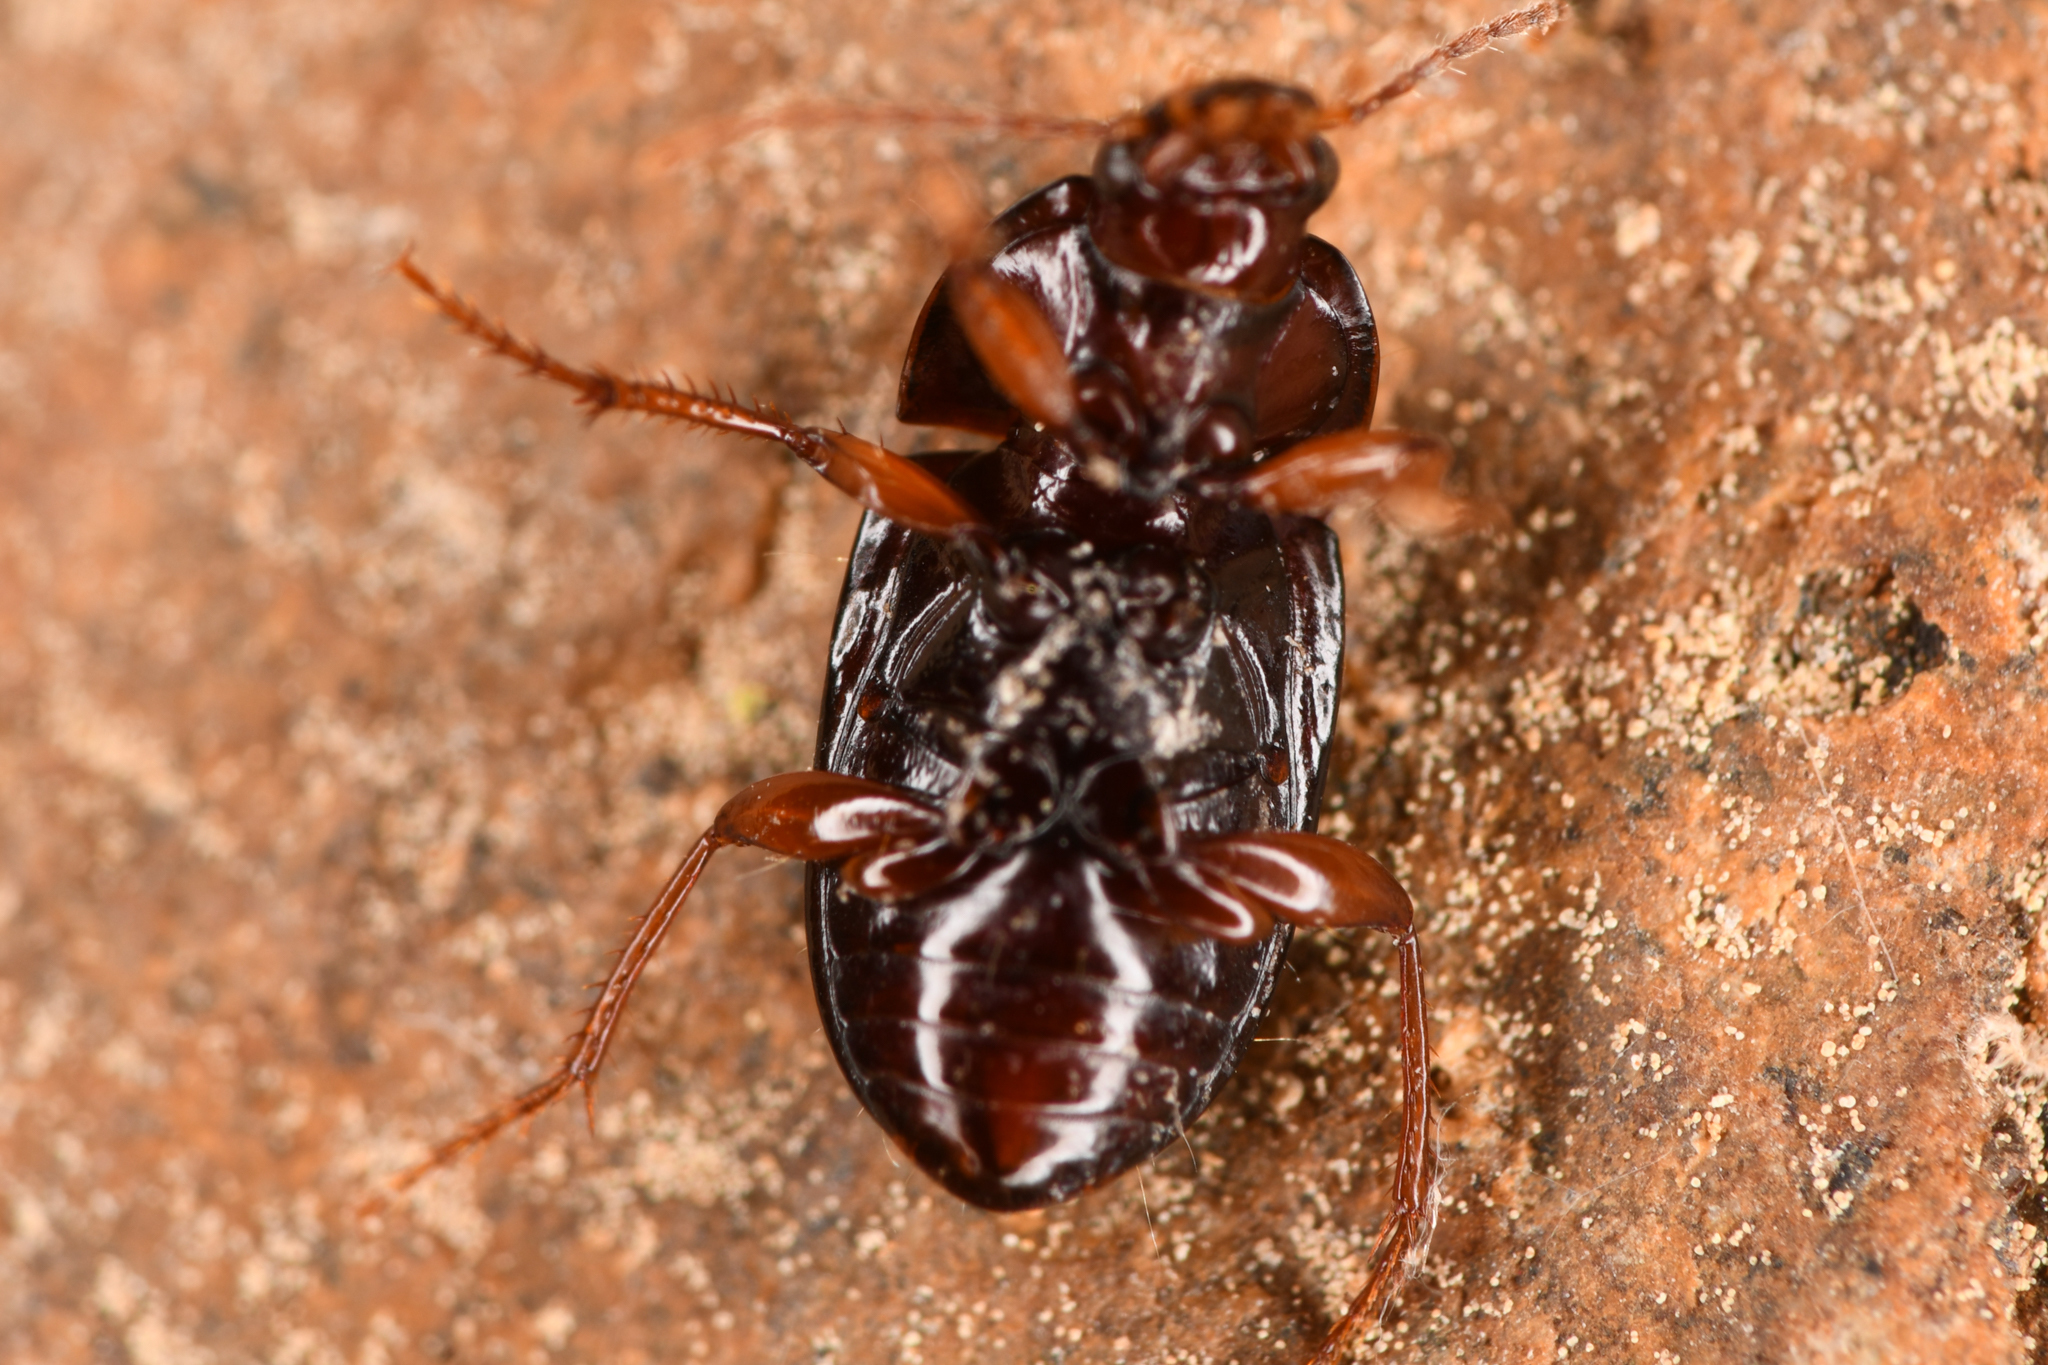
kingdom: Animalia
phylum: Arthropoda
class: Insecta
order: Coleoptera
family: Carabidae
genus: Amara
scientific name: Amara convexa
